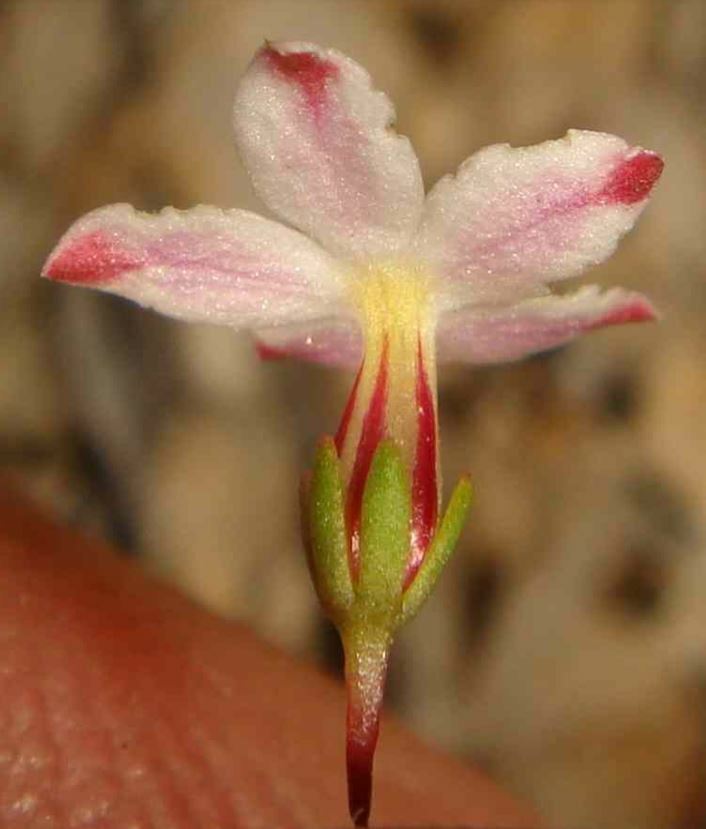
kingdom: Plantae
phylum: Tracheophyta
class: Magnoliopsida
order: Asterales
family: Campanulaceae
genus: Nemacladus
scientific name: Nemacladus longiflorus
